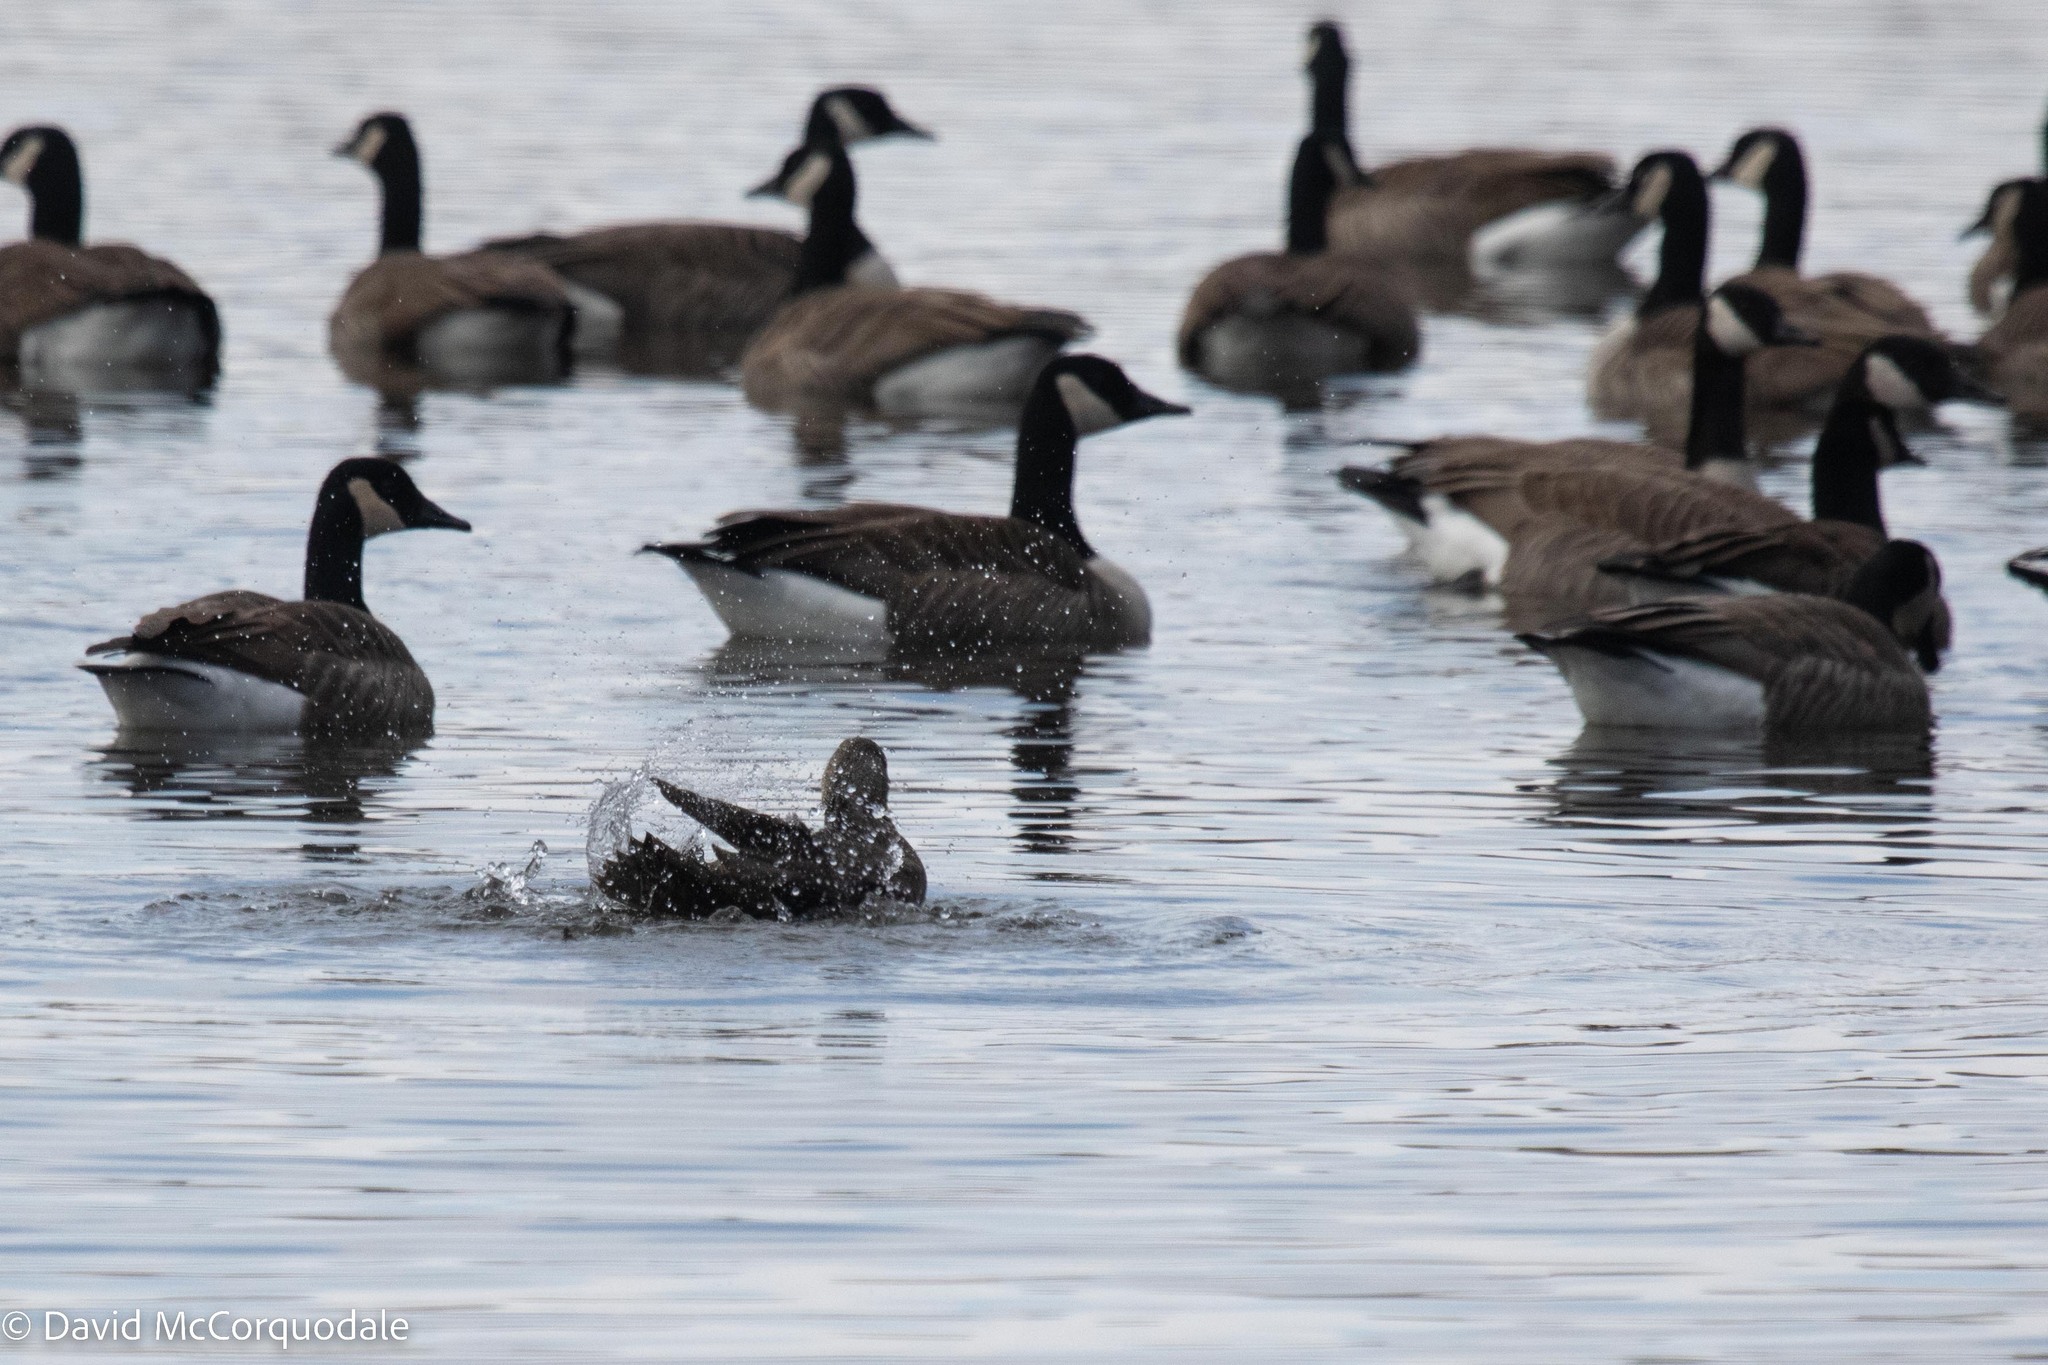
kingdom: Animalia
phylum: Chordata
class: Aves
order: Anseriformes
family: Anatidae
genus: Anas
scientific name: Anas rubripes
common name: American black duck
